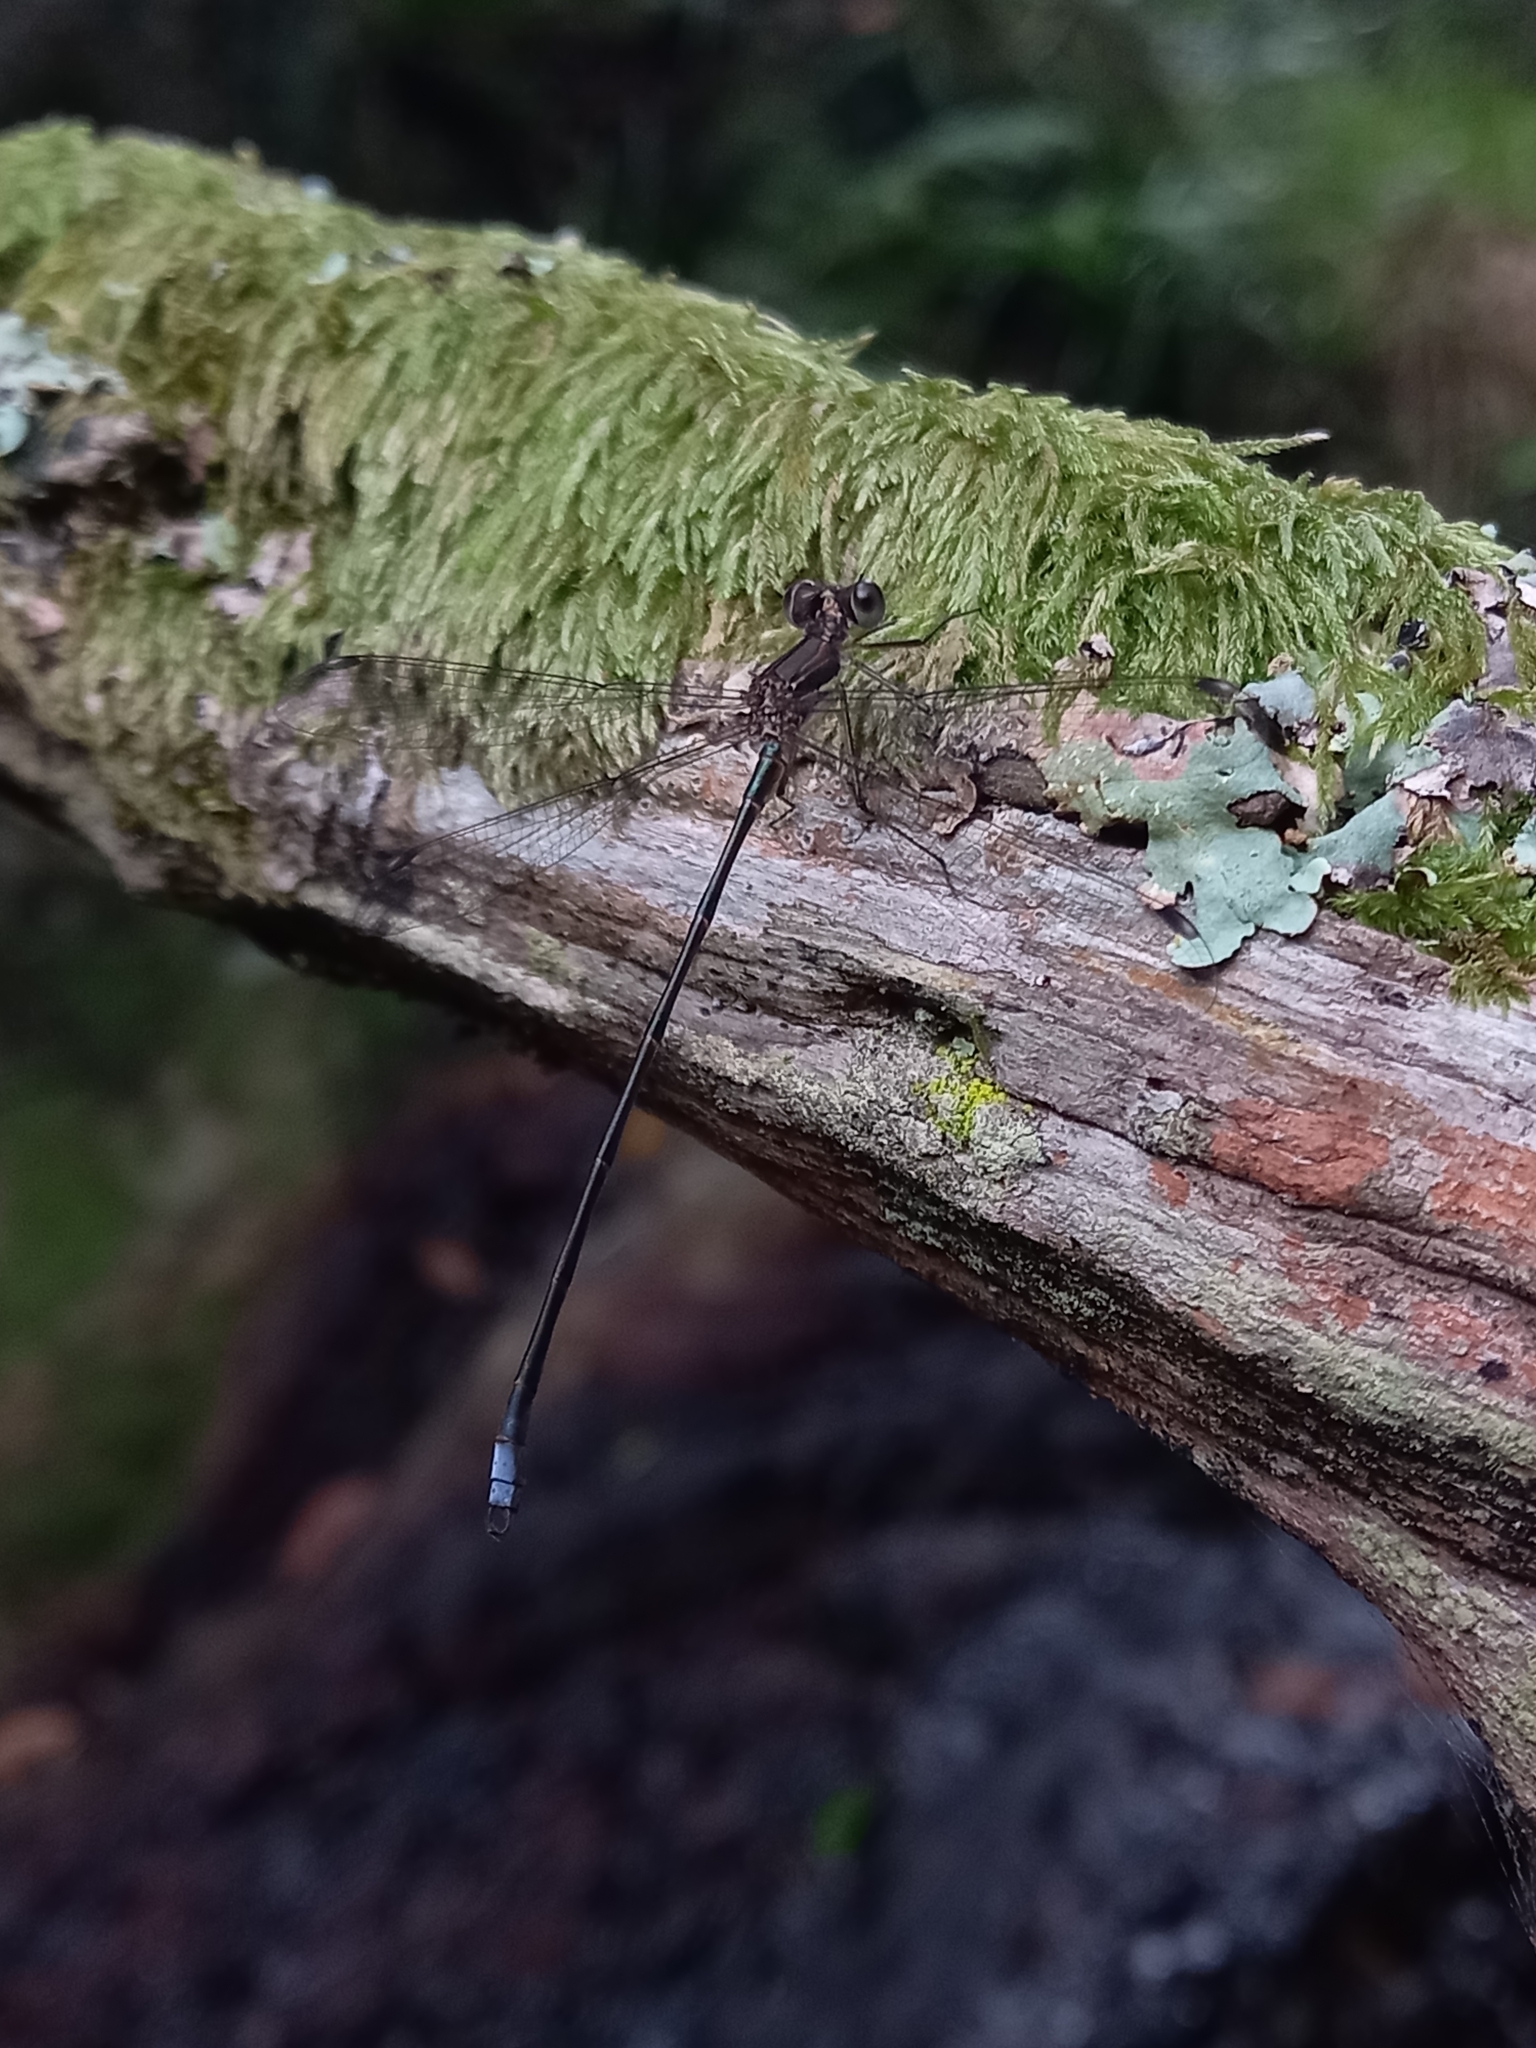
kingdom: Animalia
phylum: Arthropoda
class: Insecta
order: Odonata
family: Synlestidae
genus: Chlorolestes
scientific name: Chlorolestes tessellatus
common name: Forest malachite
